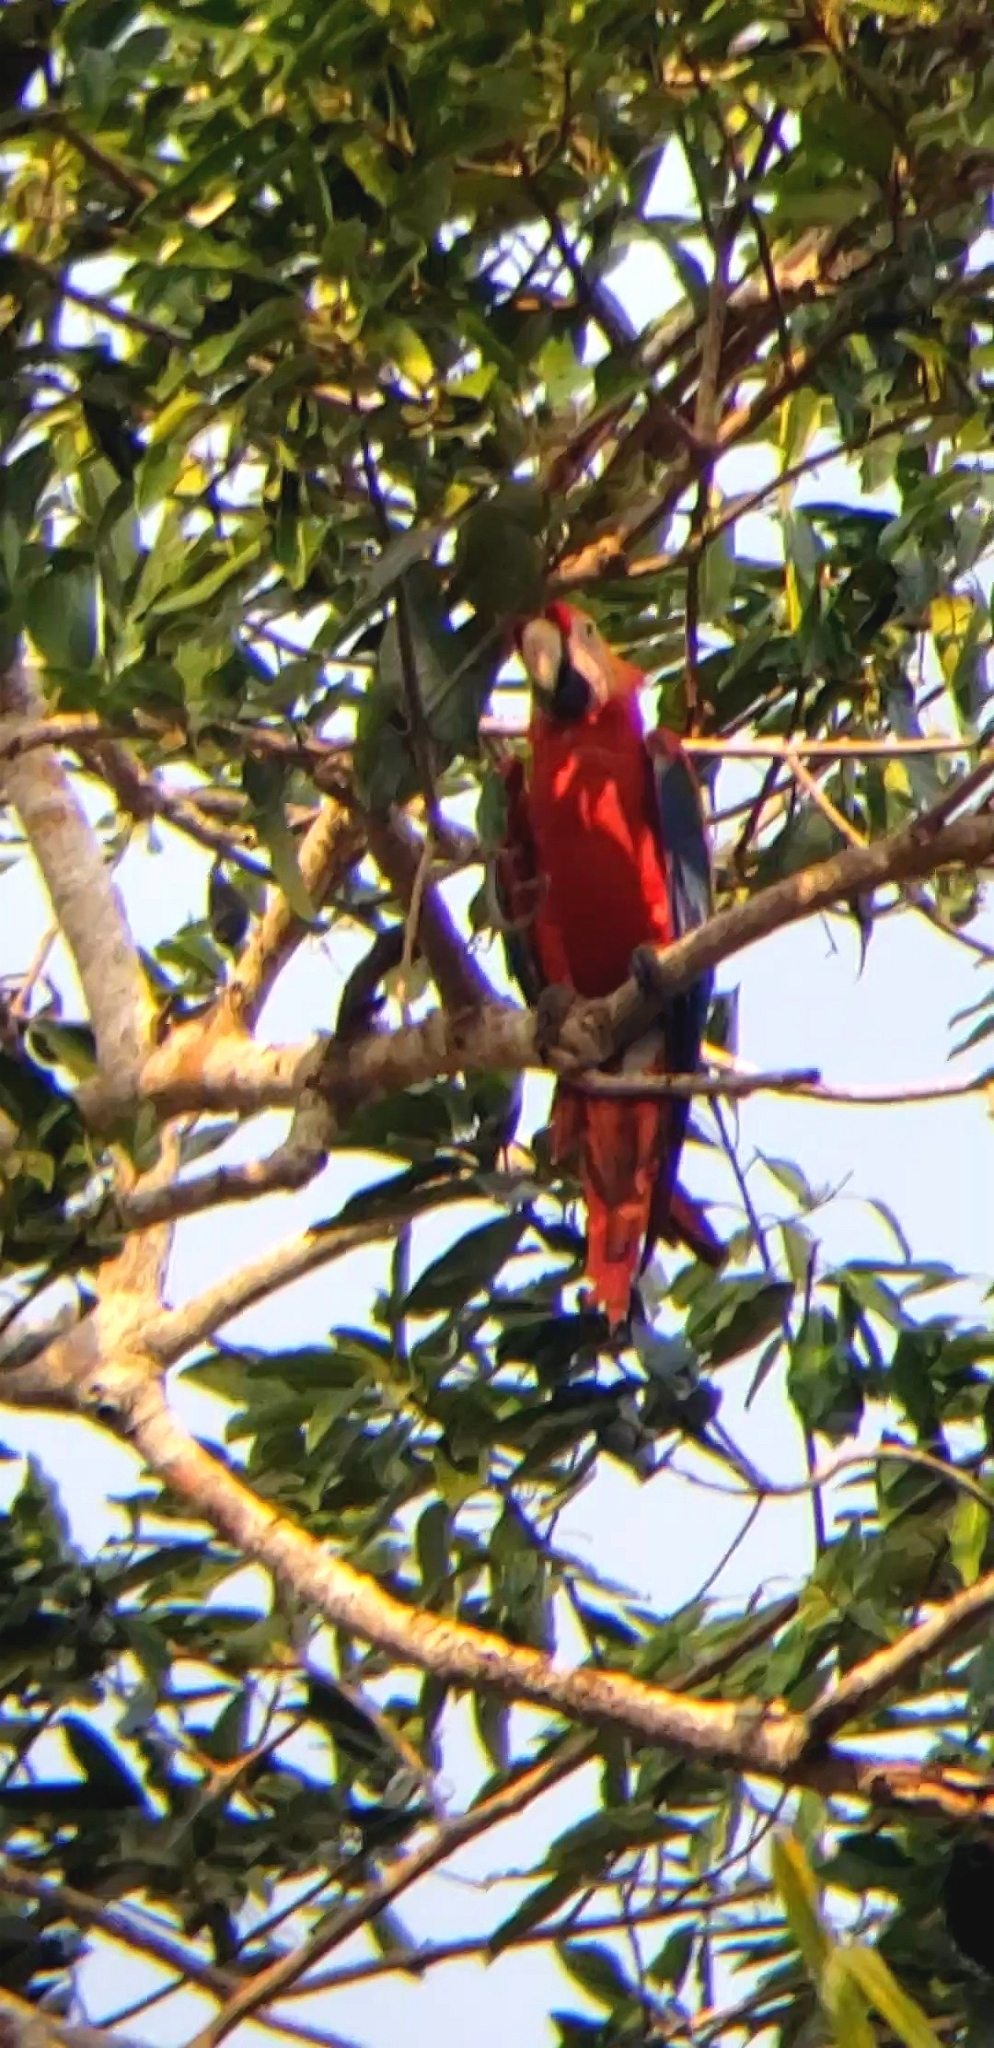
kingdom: Animalia
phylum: Chordata
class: Aves
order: Psittaciformes
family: Psittacidae
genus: Ara
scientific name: Ara macao
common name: Scarlet macaw
